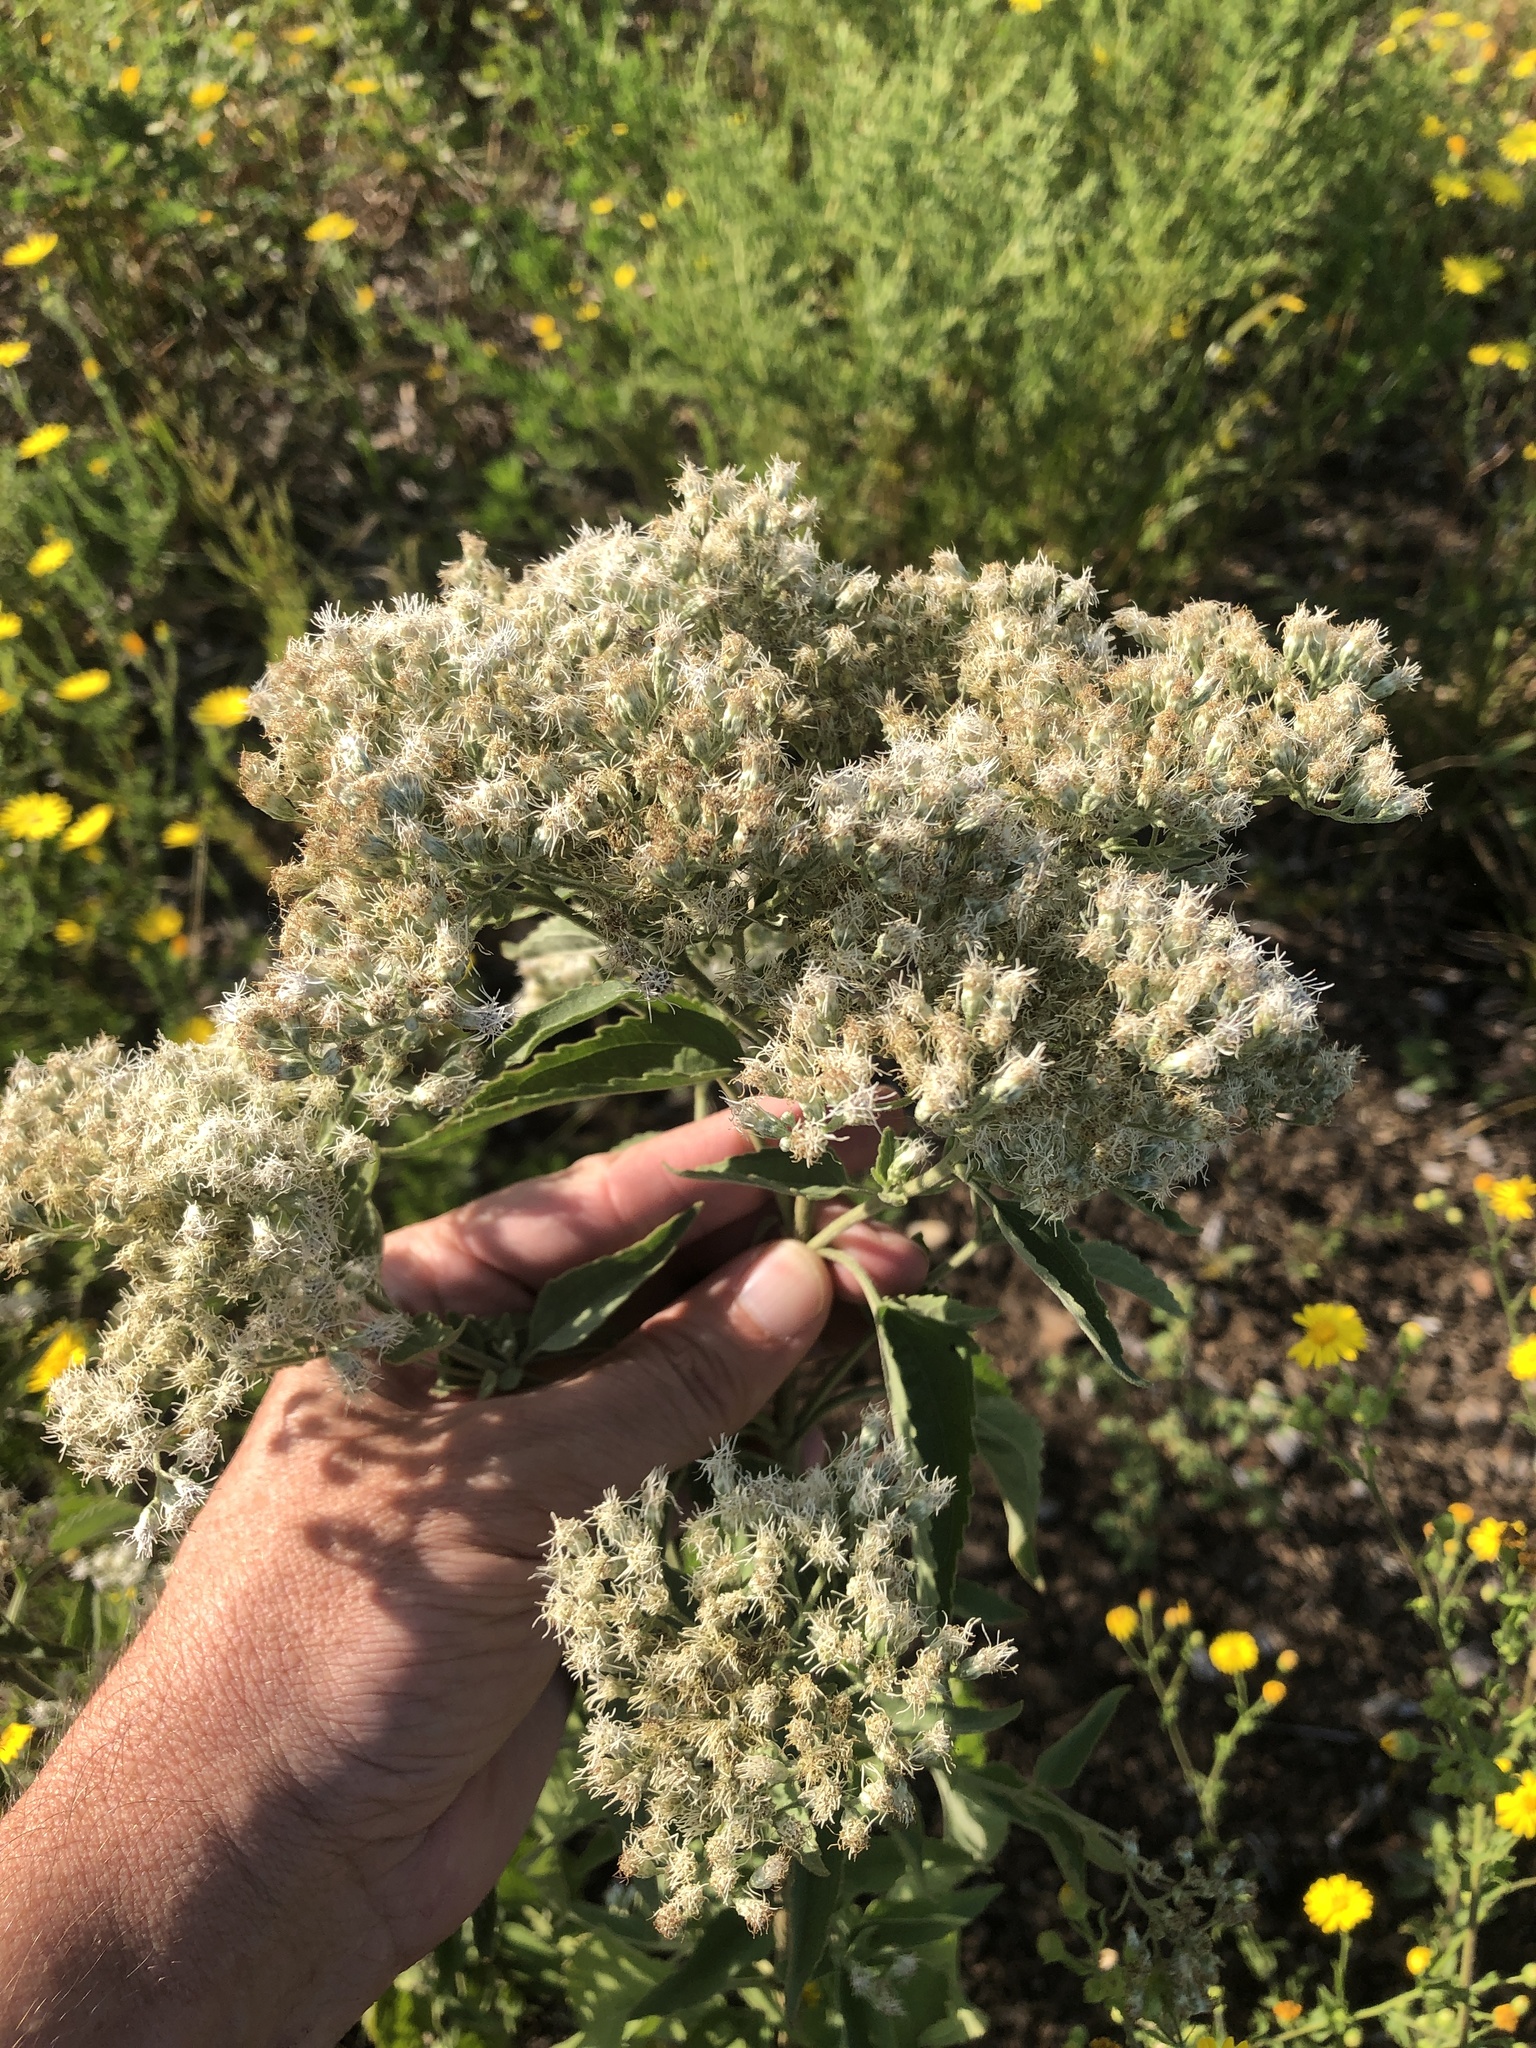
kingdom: Plantae
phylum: Tracheophyta
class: Magnoliopsida
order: Asterales
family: Asteraceae
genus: Eupatorium
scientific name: Eupatorium serotinum
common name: Late boneset
